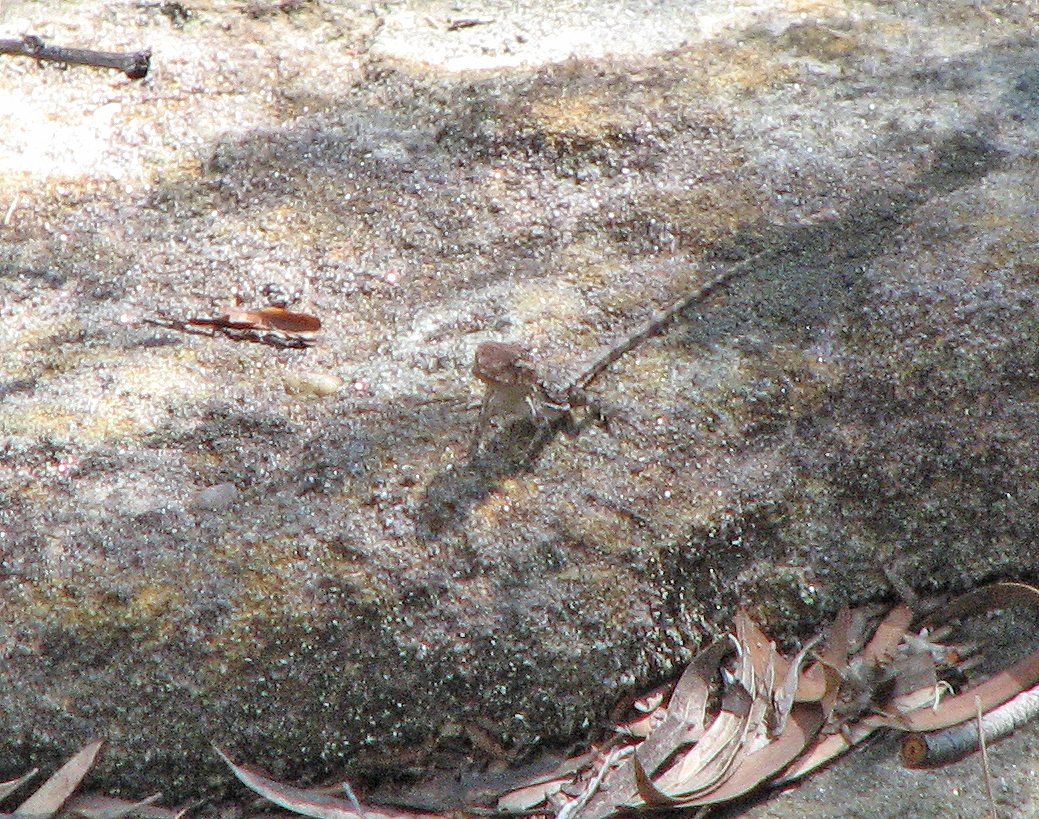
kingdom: Animalia
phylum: Chordata
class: Squamata
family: Agamidae
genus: Rankinia
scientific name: Rankinia diemensis
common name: Mountain dragon
